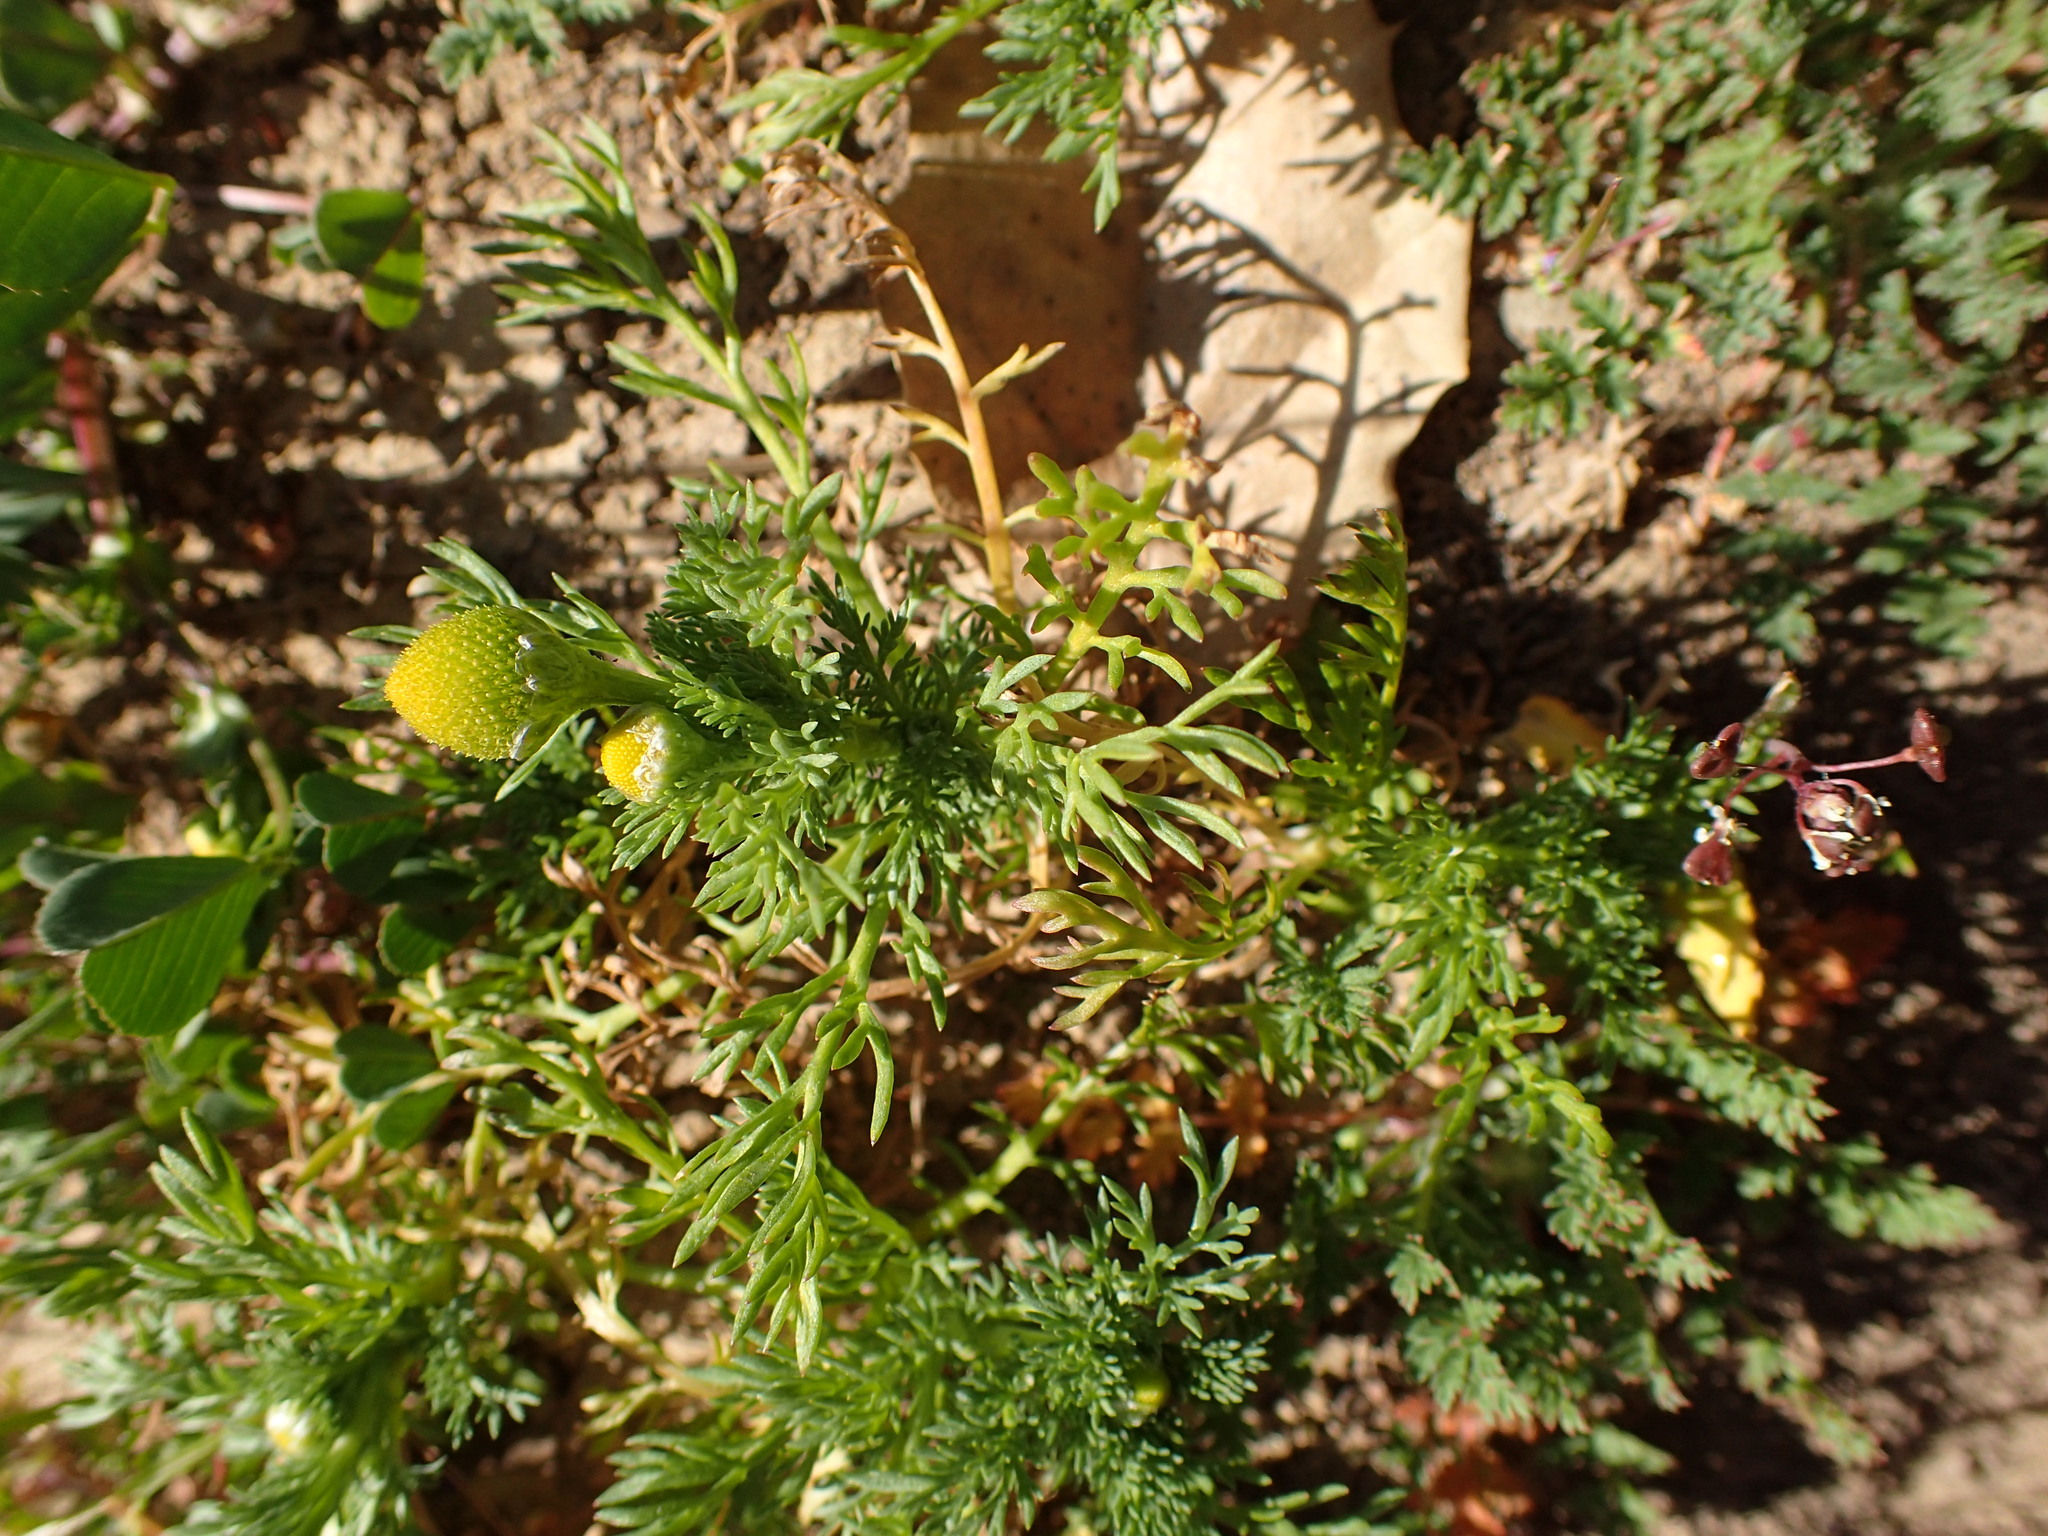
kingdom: Plantae
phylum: Tracheophyta
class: Magnoliopsida
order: Asterales
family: Asteraceae
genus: Matricaria
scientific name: Matricaria discoidea
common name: Disc mayweed
